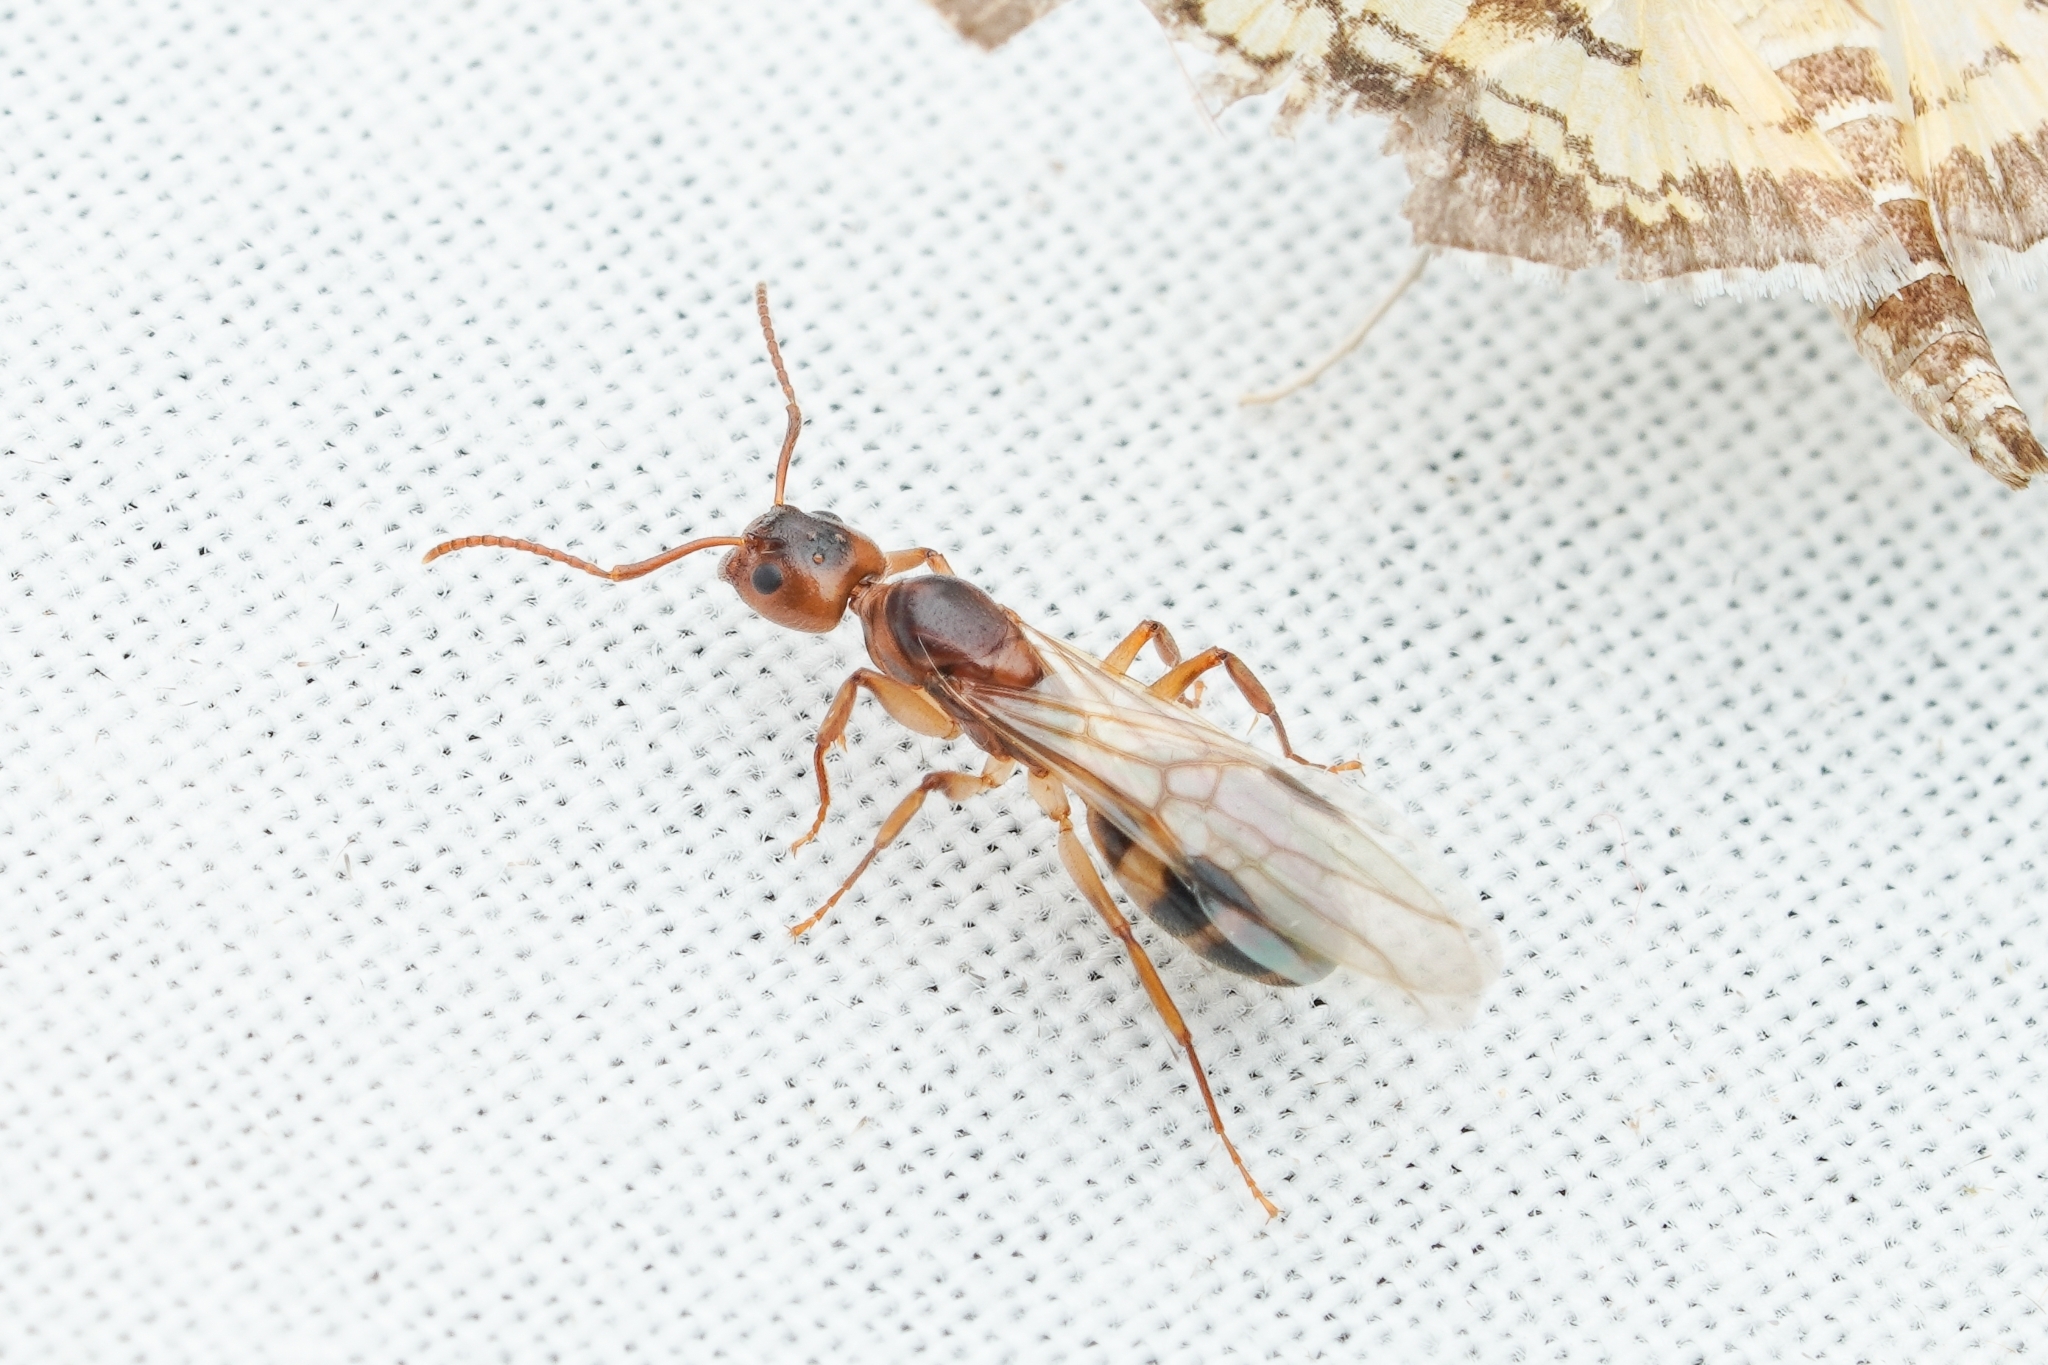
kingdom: Animalia
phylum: Arthropoda
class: Insecta
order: Hymenoptera
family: Formicidae
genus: Dolichoderus
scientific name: Dolichoderus lutosus
